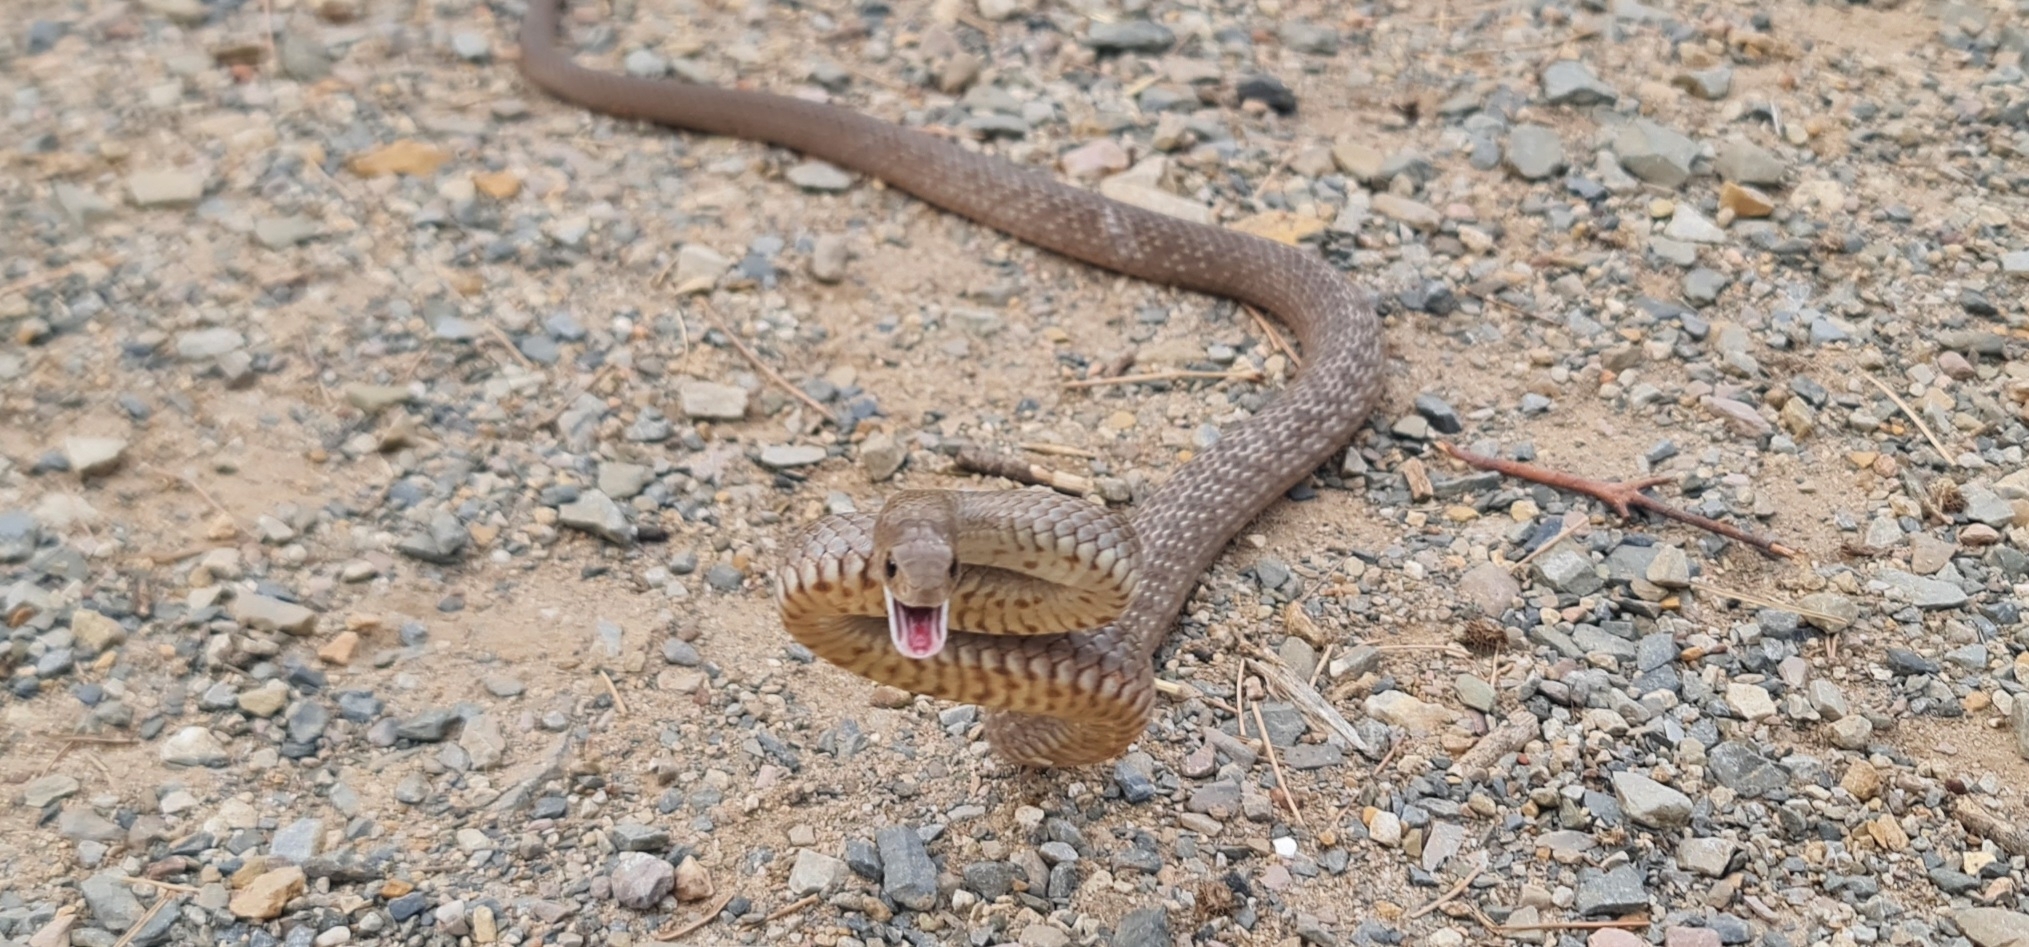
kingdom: Animalia
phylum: Chordata
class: Squamata
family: Elapidae
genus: Pseudonaja
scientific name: Pseudonaja textilis
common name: Eastern brown snake
